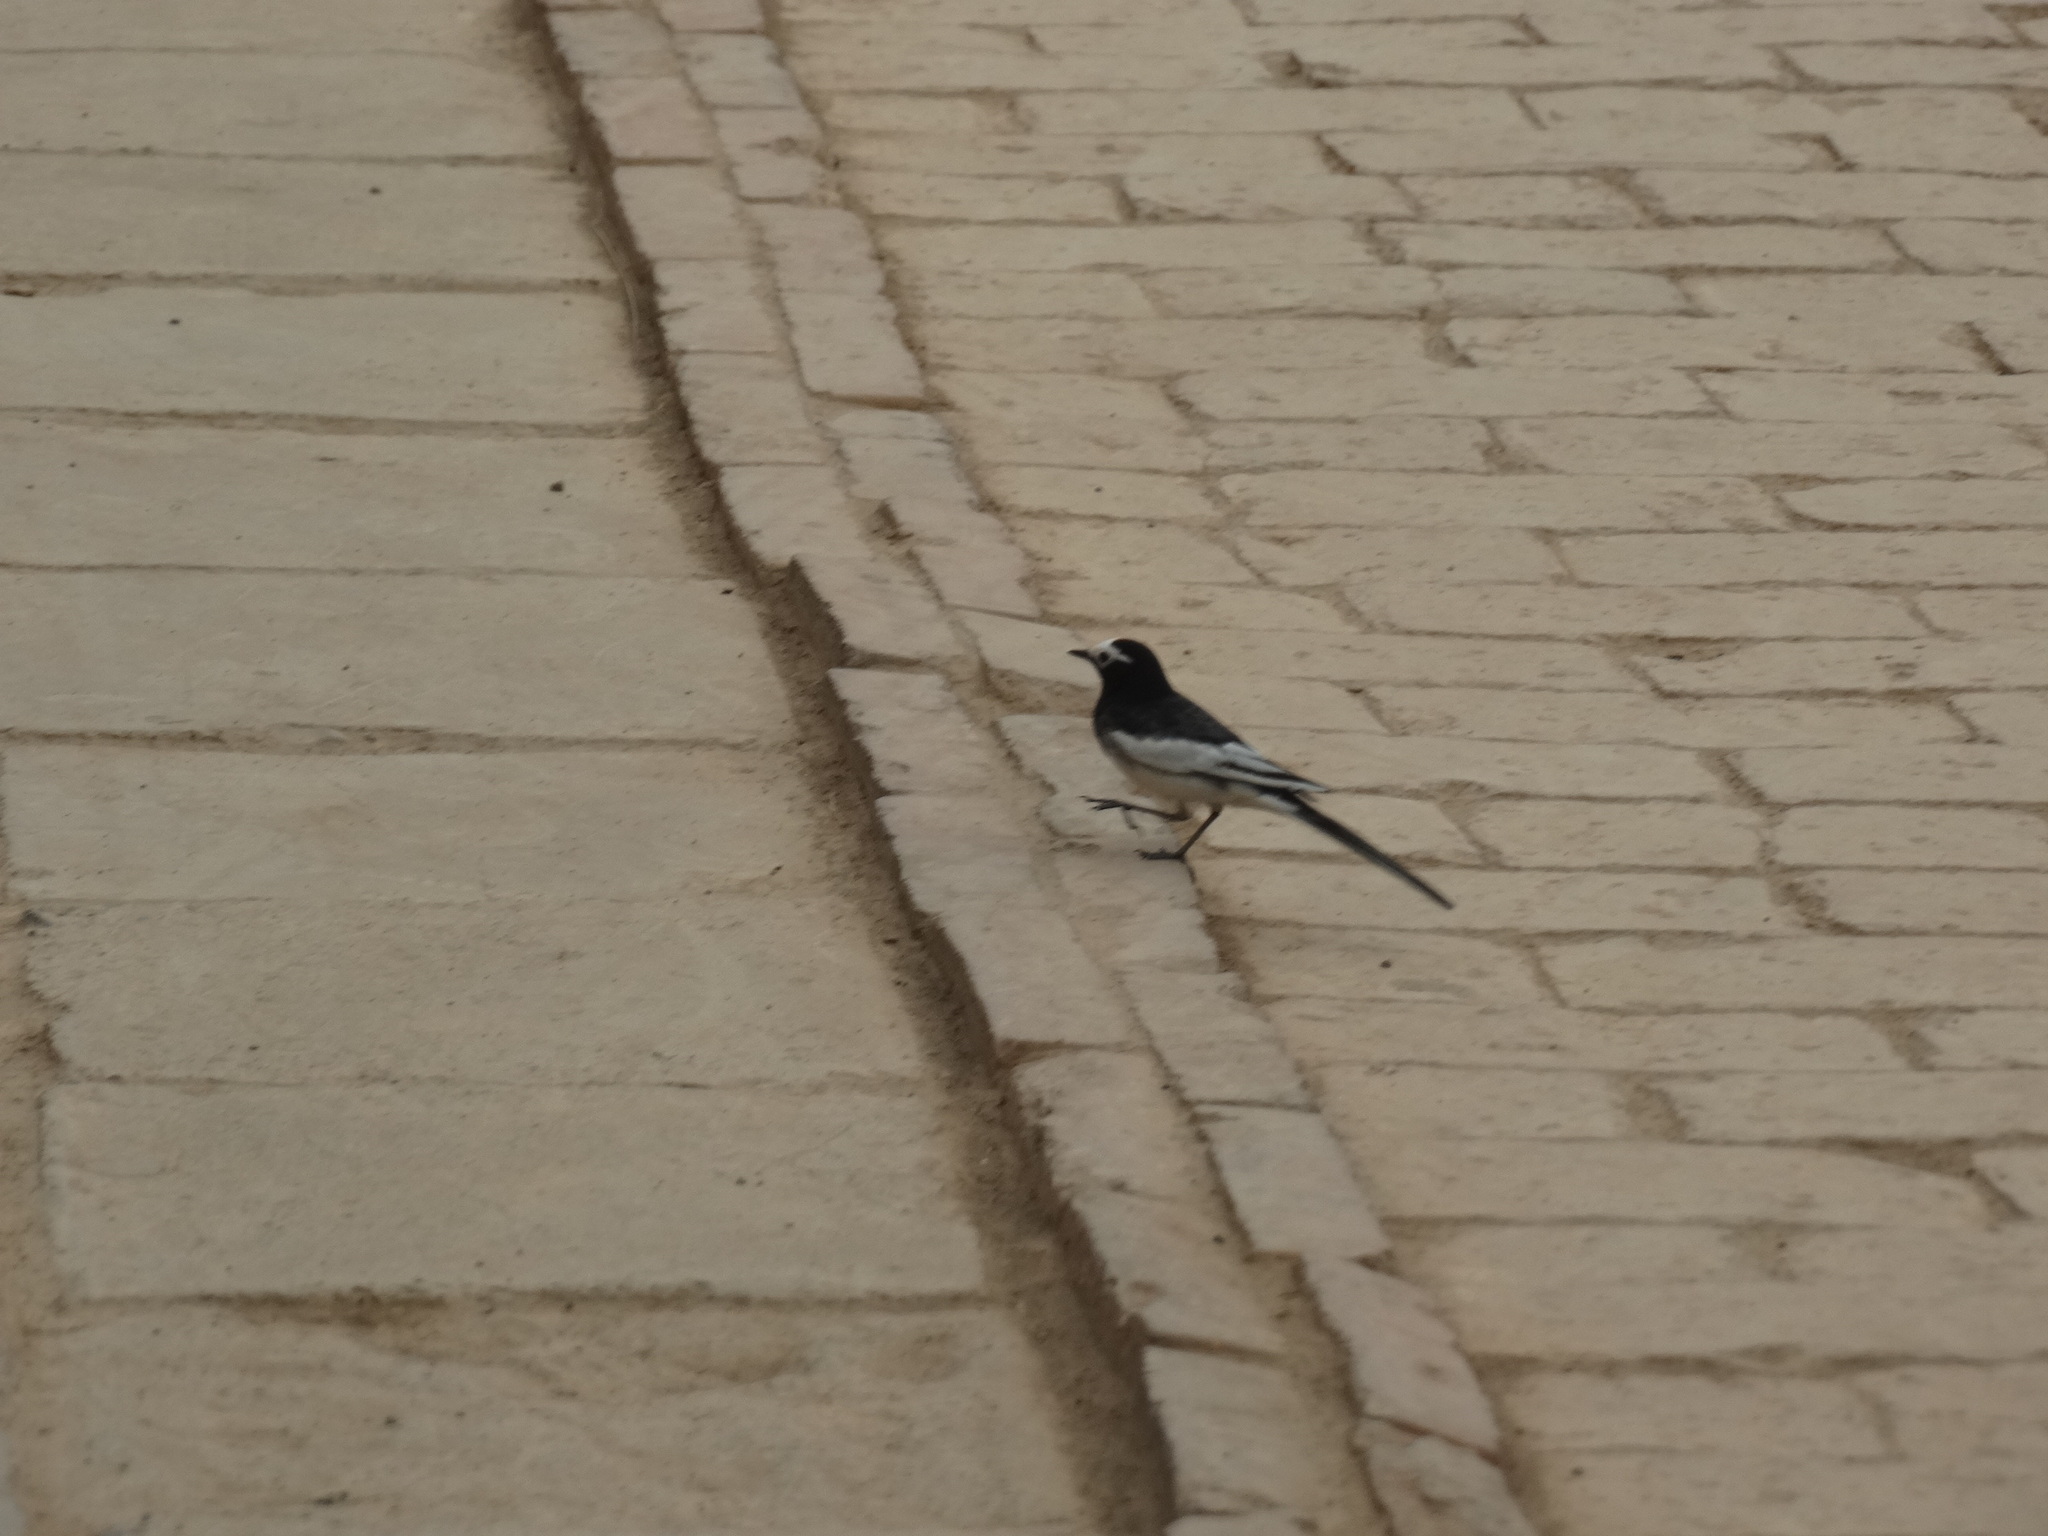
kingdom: Animalia
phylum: Chordata
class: Aves
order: Passeriformes
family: Motacillidae
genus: Motacilla
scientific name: Motacilla alba
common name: White wagtail
